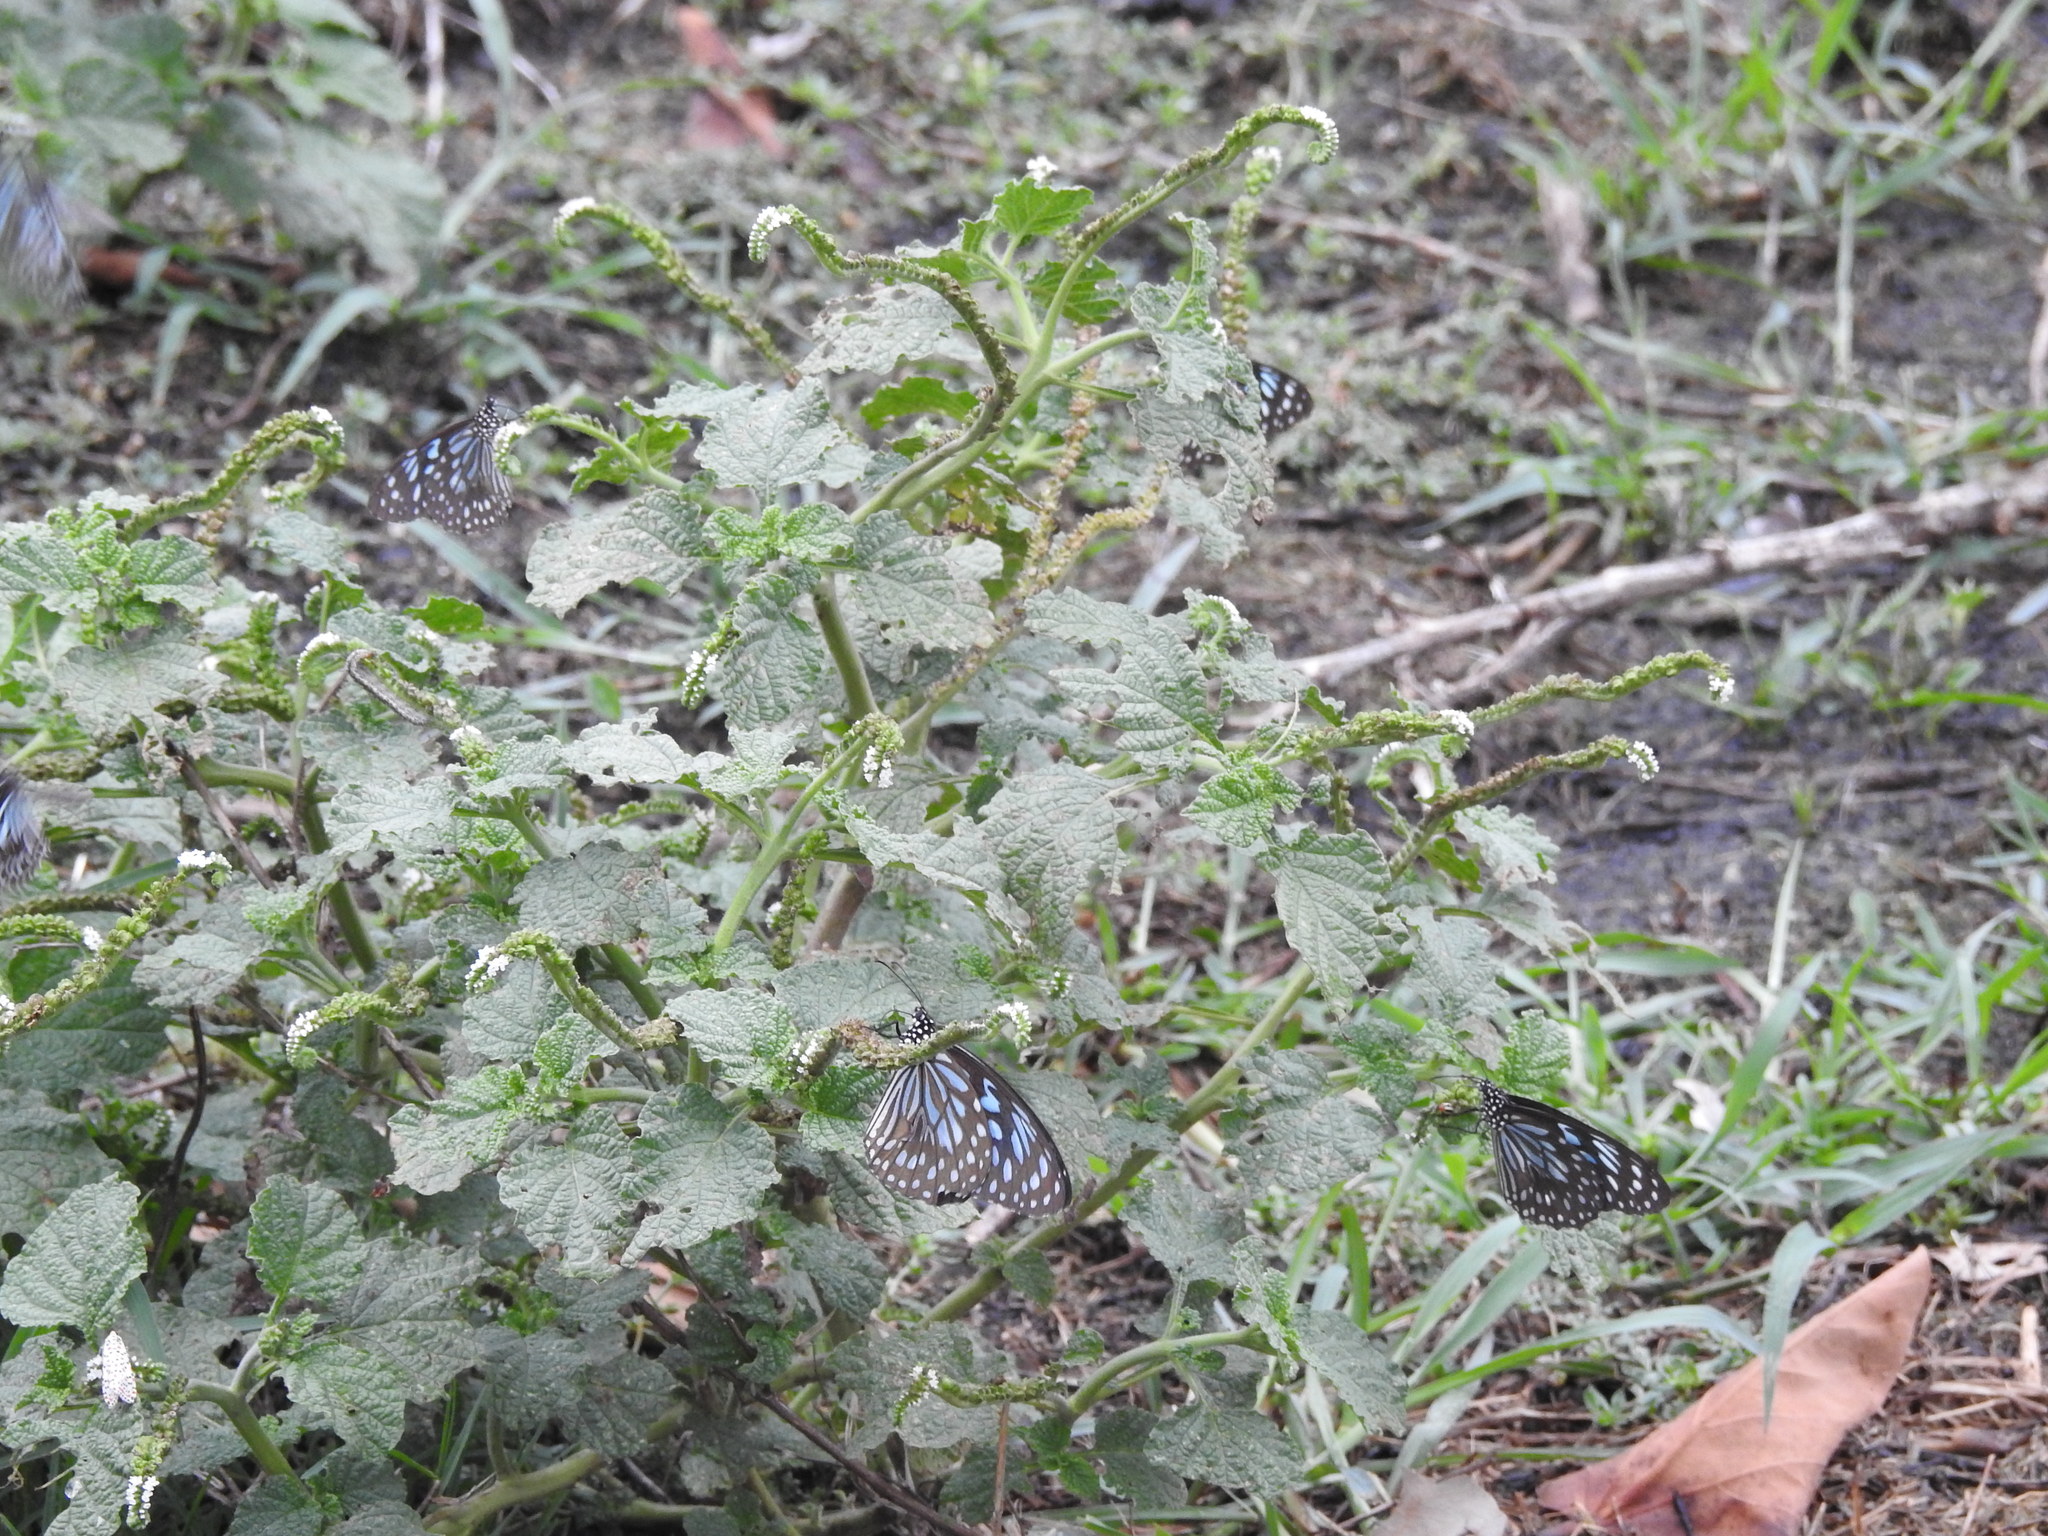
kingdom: Animalia
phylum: Arthropoda
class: Insecta
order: Lepidoptera
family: Nymphalidae
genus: Tirumala
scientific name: Tirumala septentrionis
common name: Dark blue tiger butterfly
